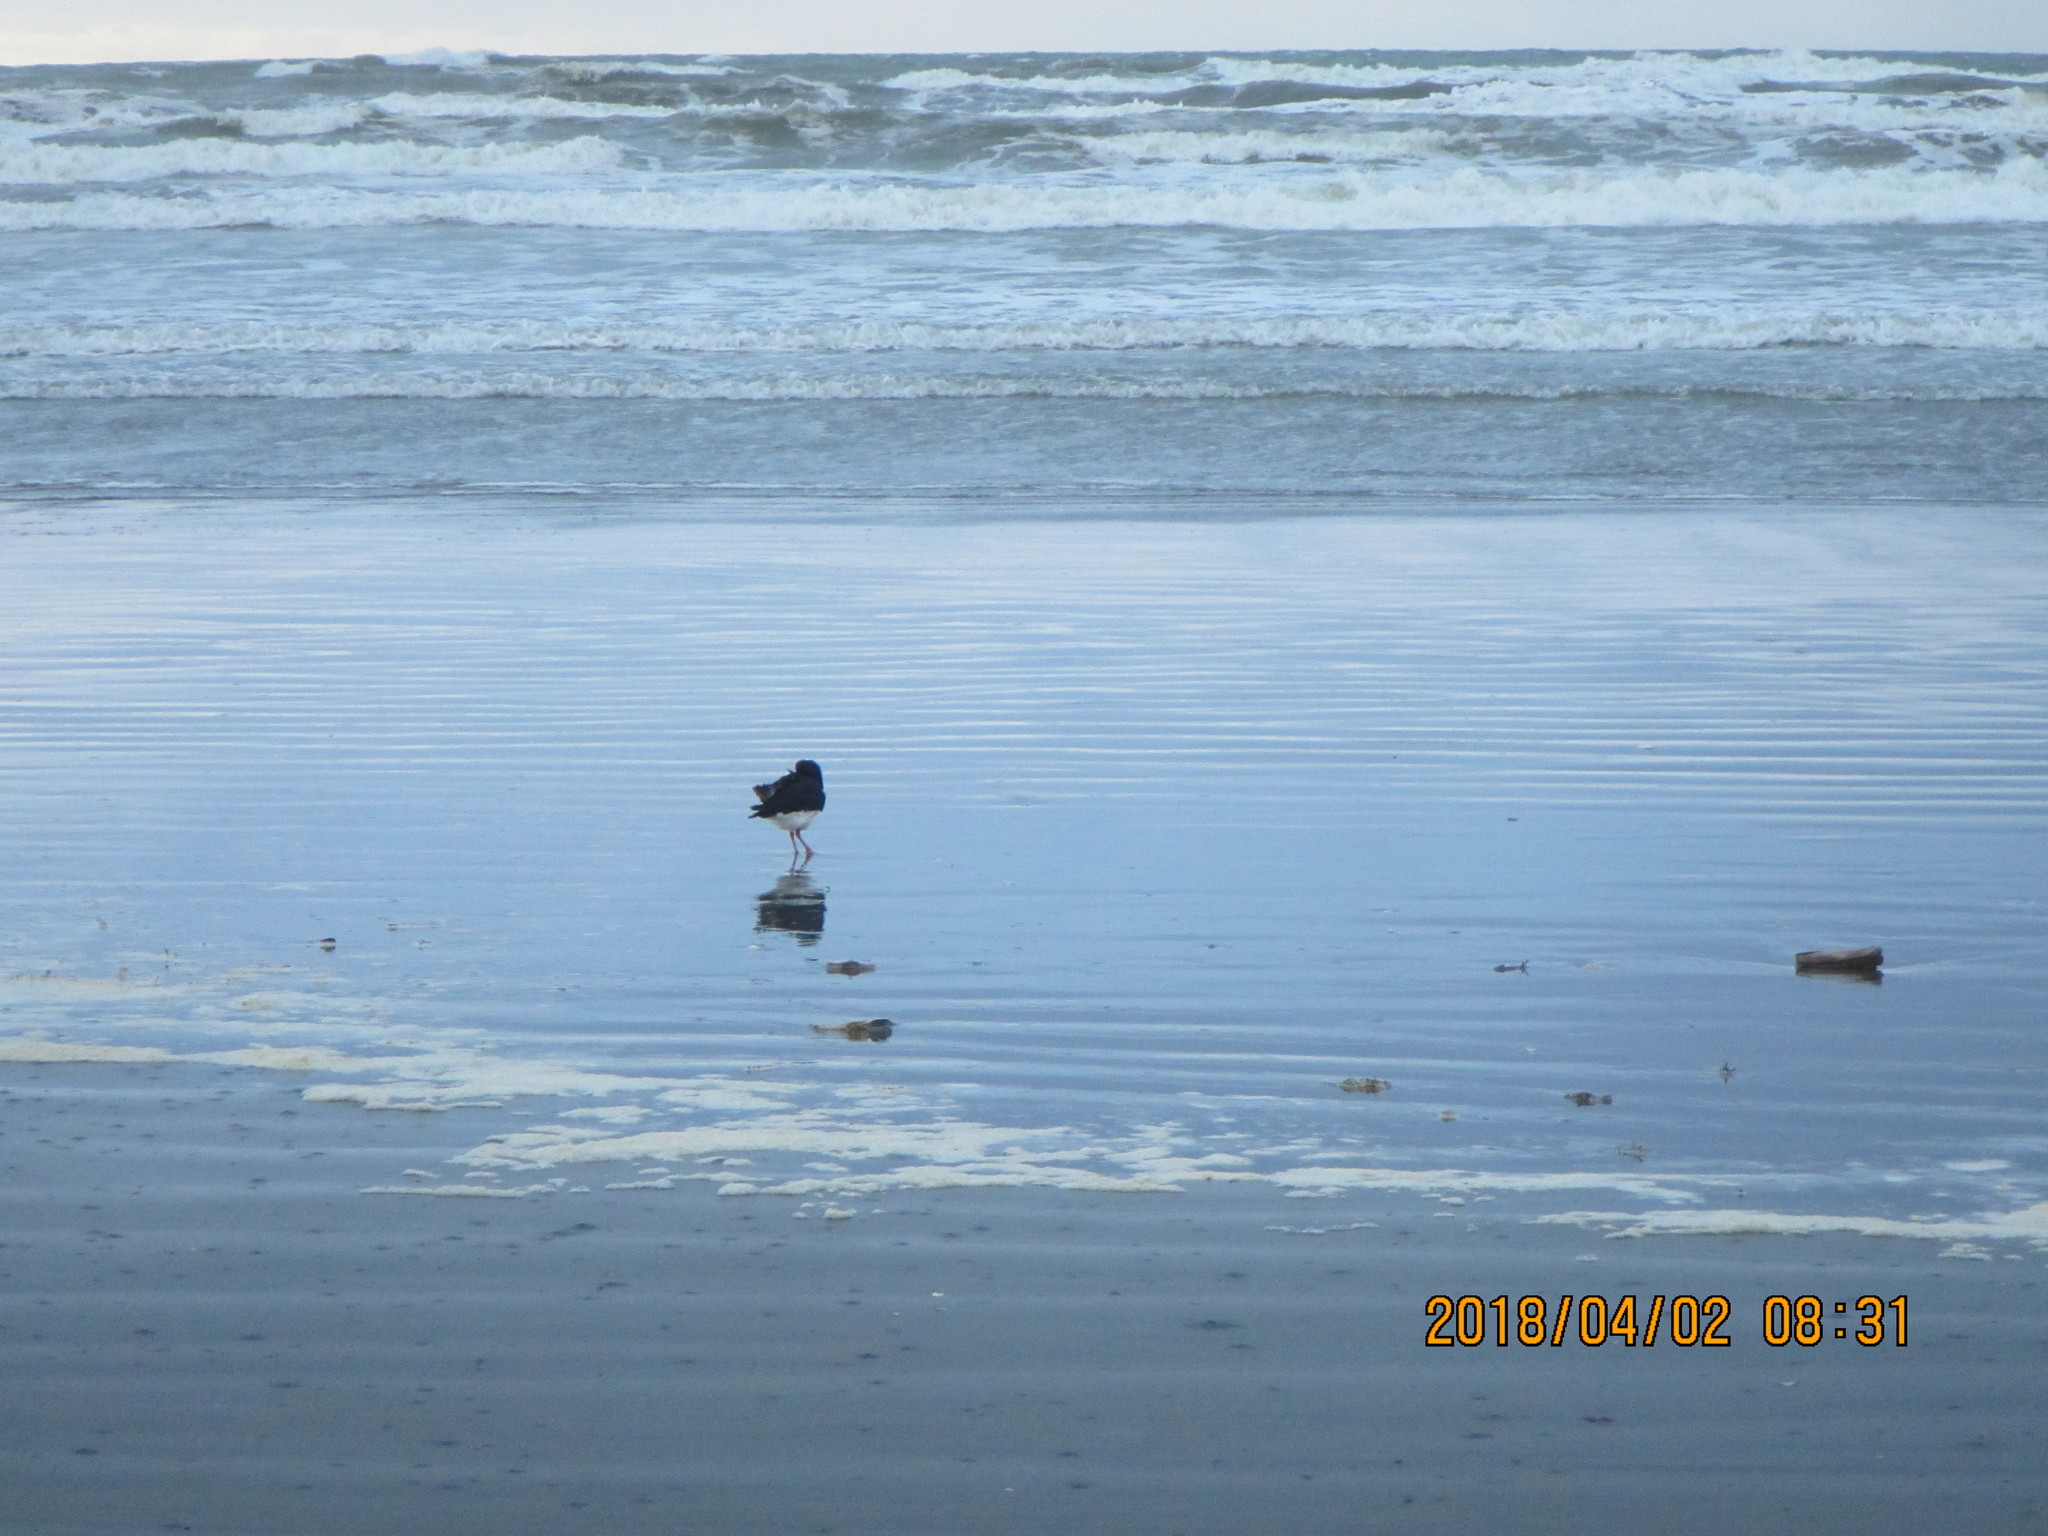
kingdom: Animalia
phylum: Chordata
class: Aves
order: Charadriiformes
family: Haematopodidae
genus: Haematopus
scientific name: Haematopus finschi
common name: South island oystercatcher
